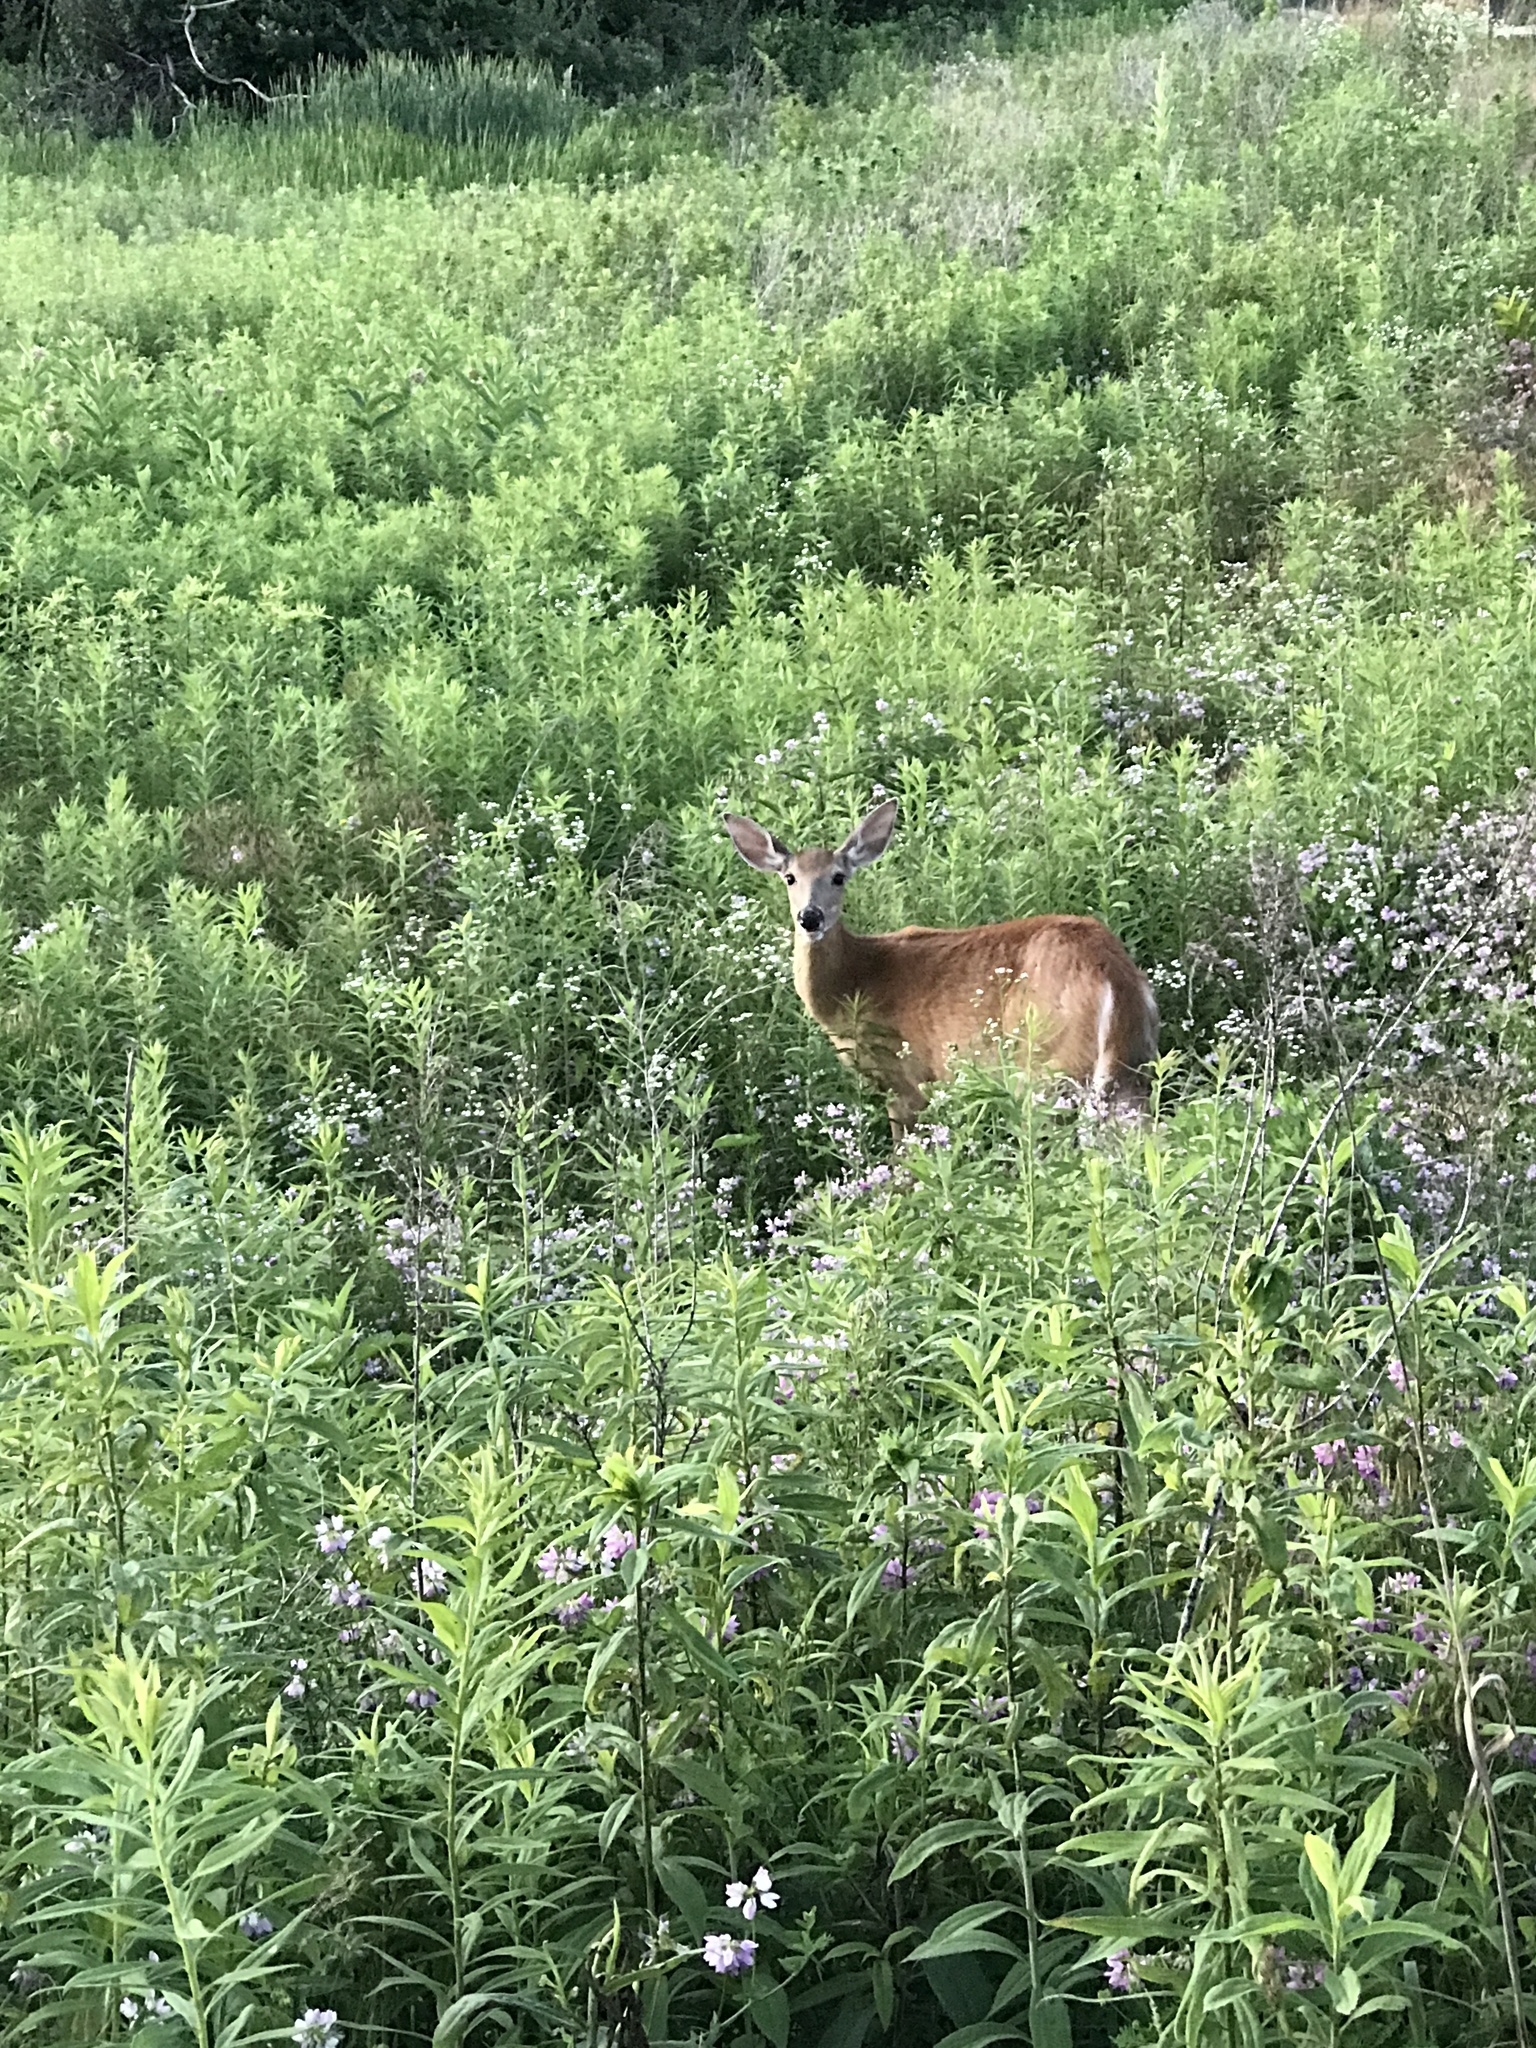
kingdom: Animalia
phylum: Chordata
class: Mammalia
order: Artiodactyla
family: Cervidae
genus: Odocoileus
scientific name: Odocoileus virginianus
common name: White-tailed deer
